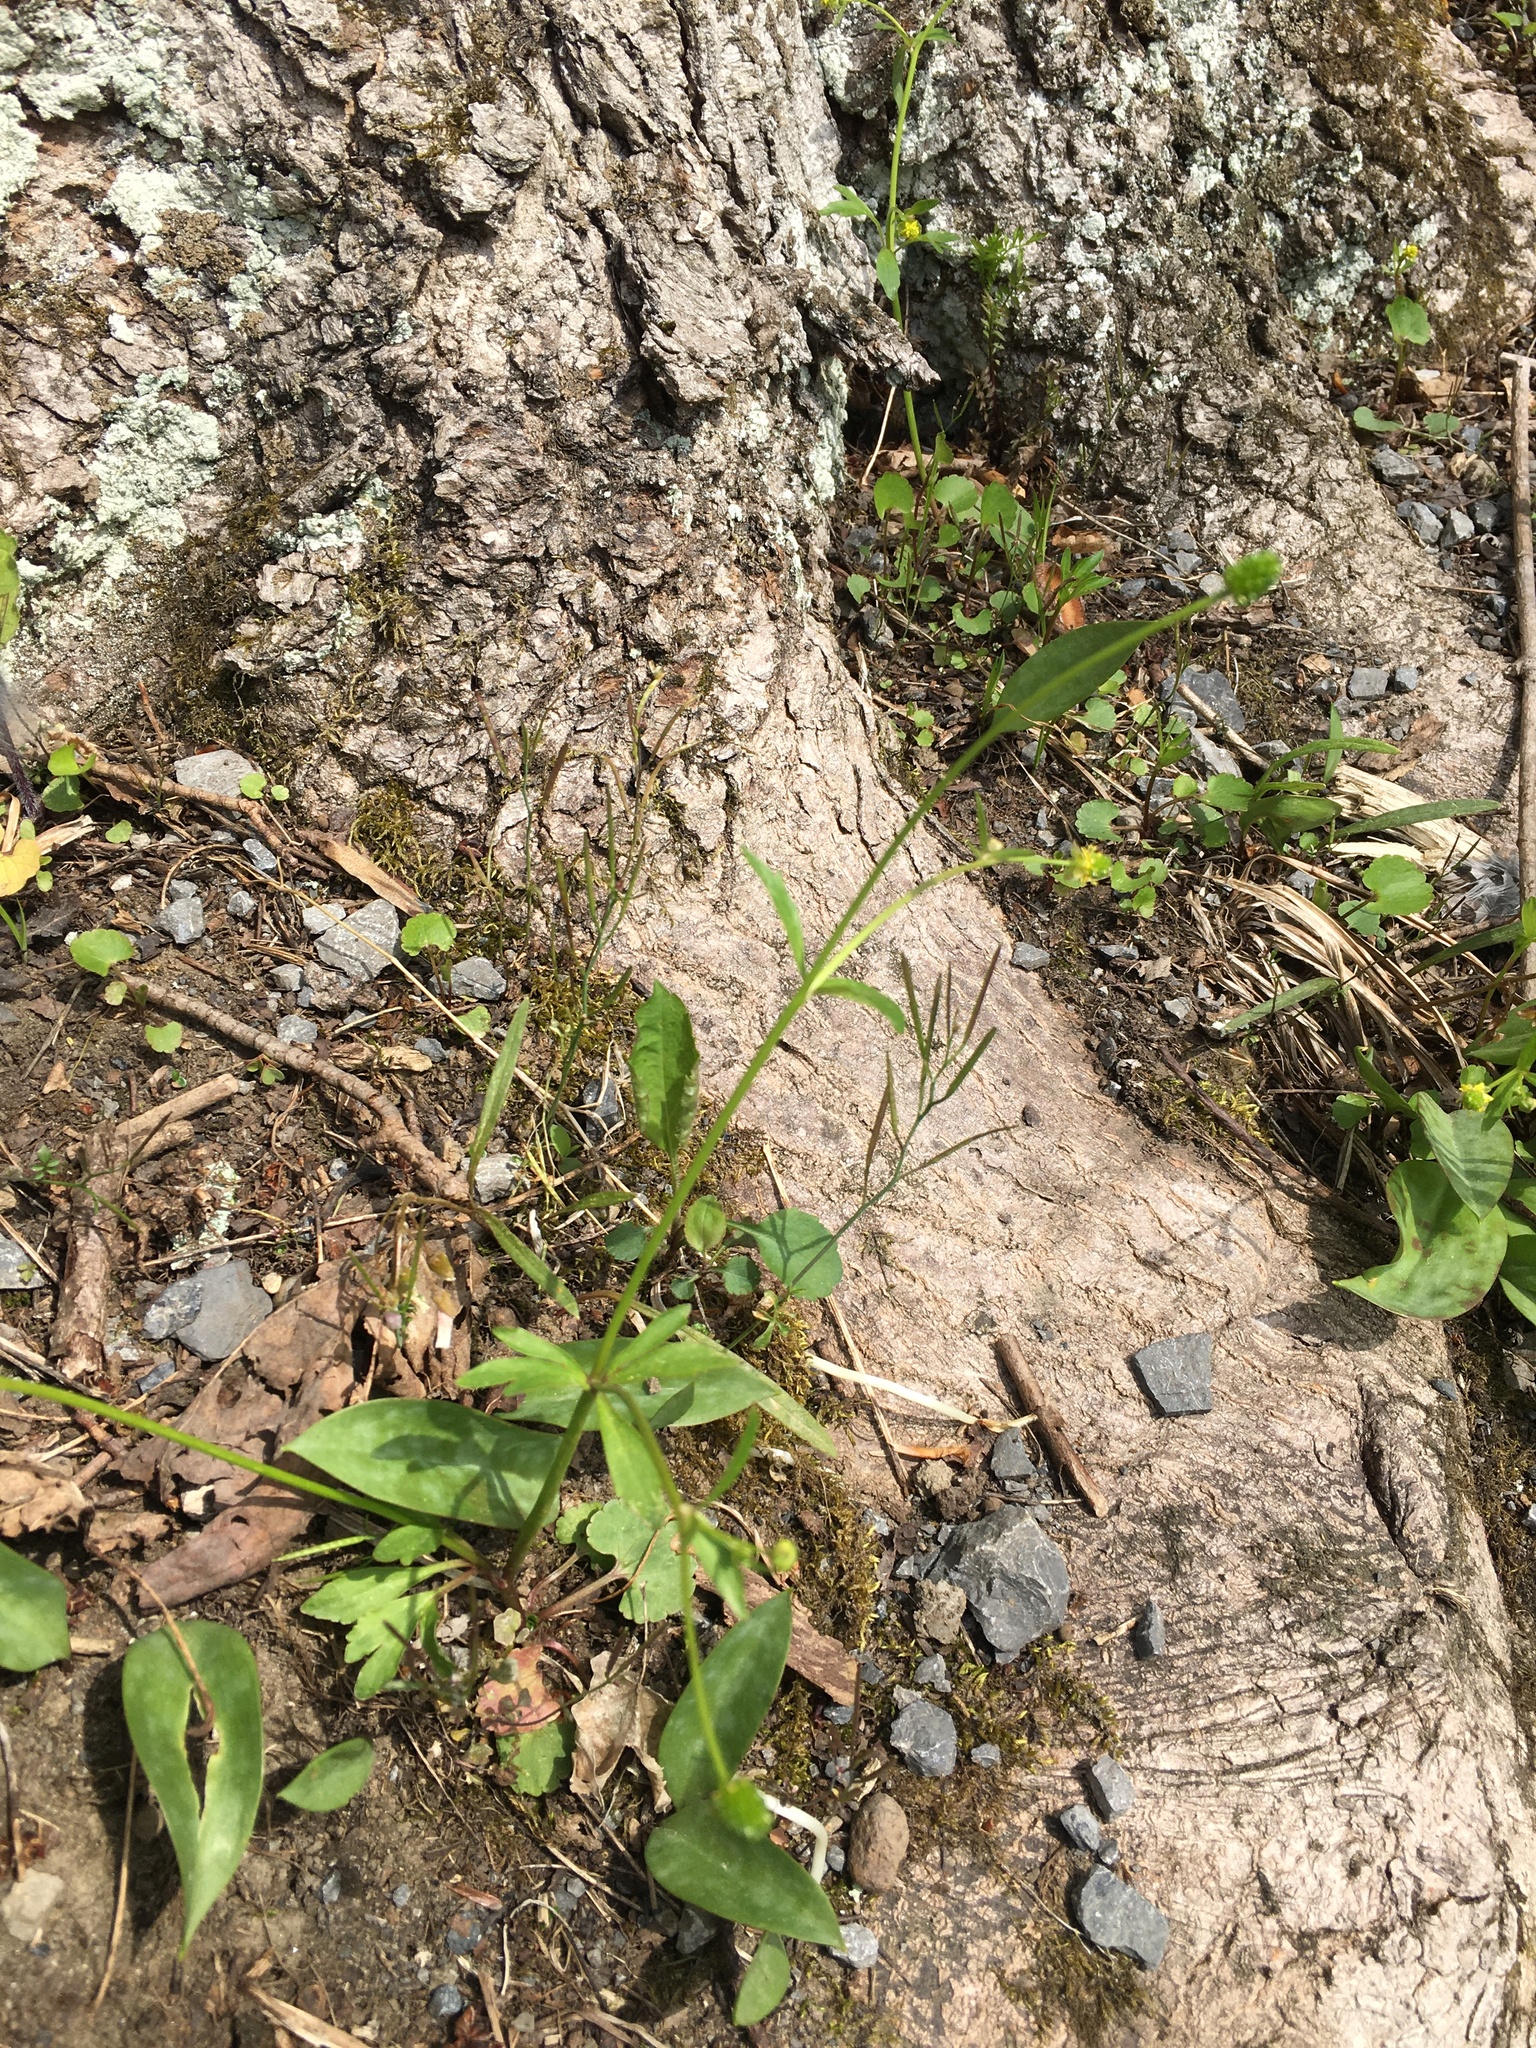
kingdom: Plantae
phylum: Tracheophyta
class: Magnoliopsida
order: Ranunculales
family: Ranunculaceae
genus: Ranunculus
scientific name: Ranunculus abortivus
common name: Early wood buttercup
